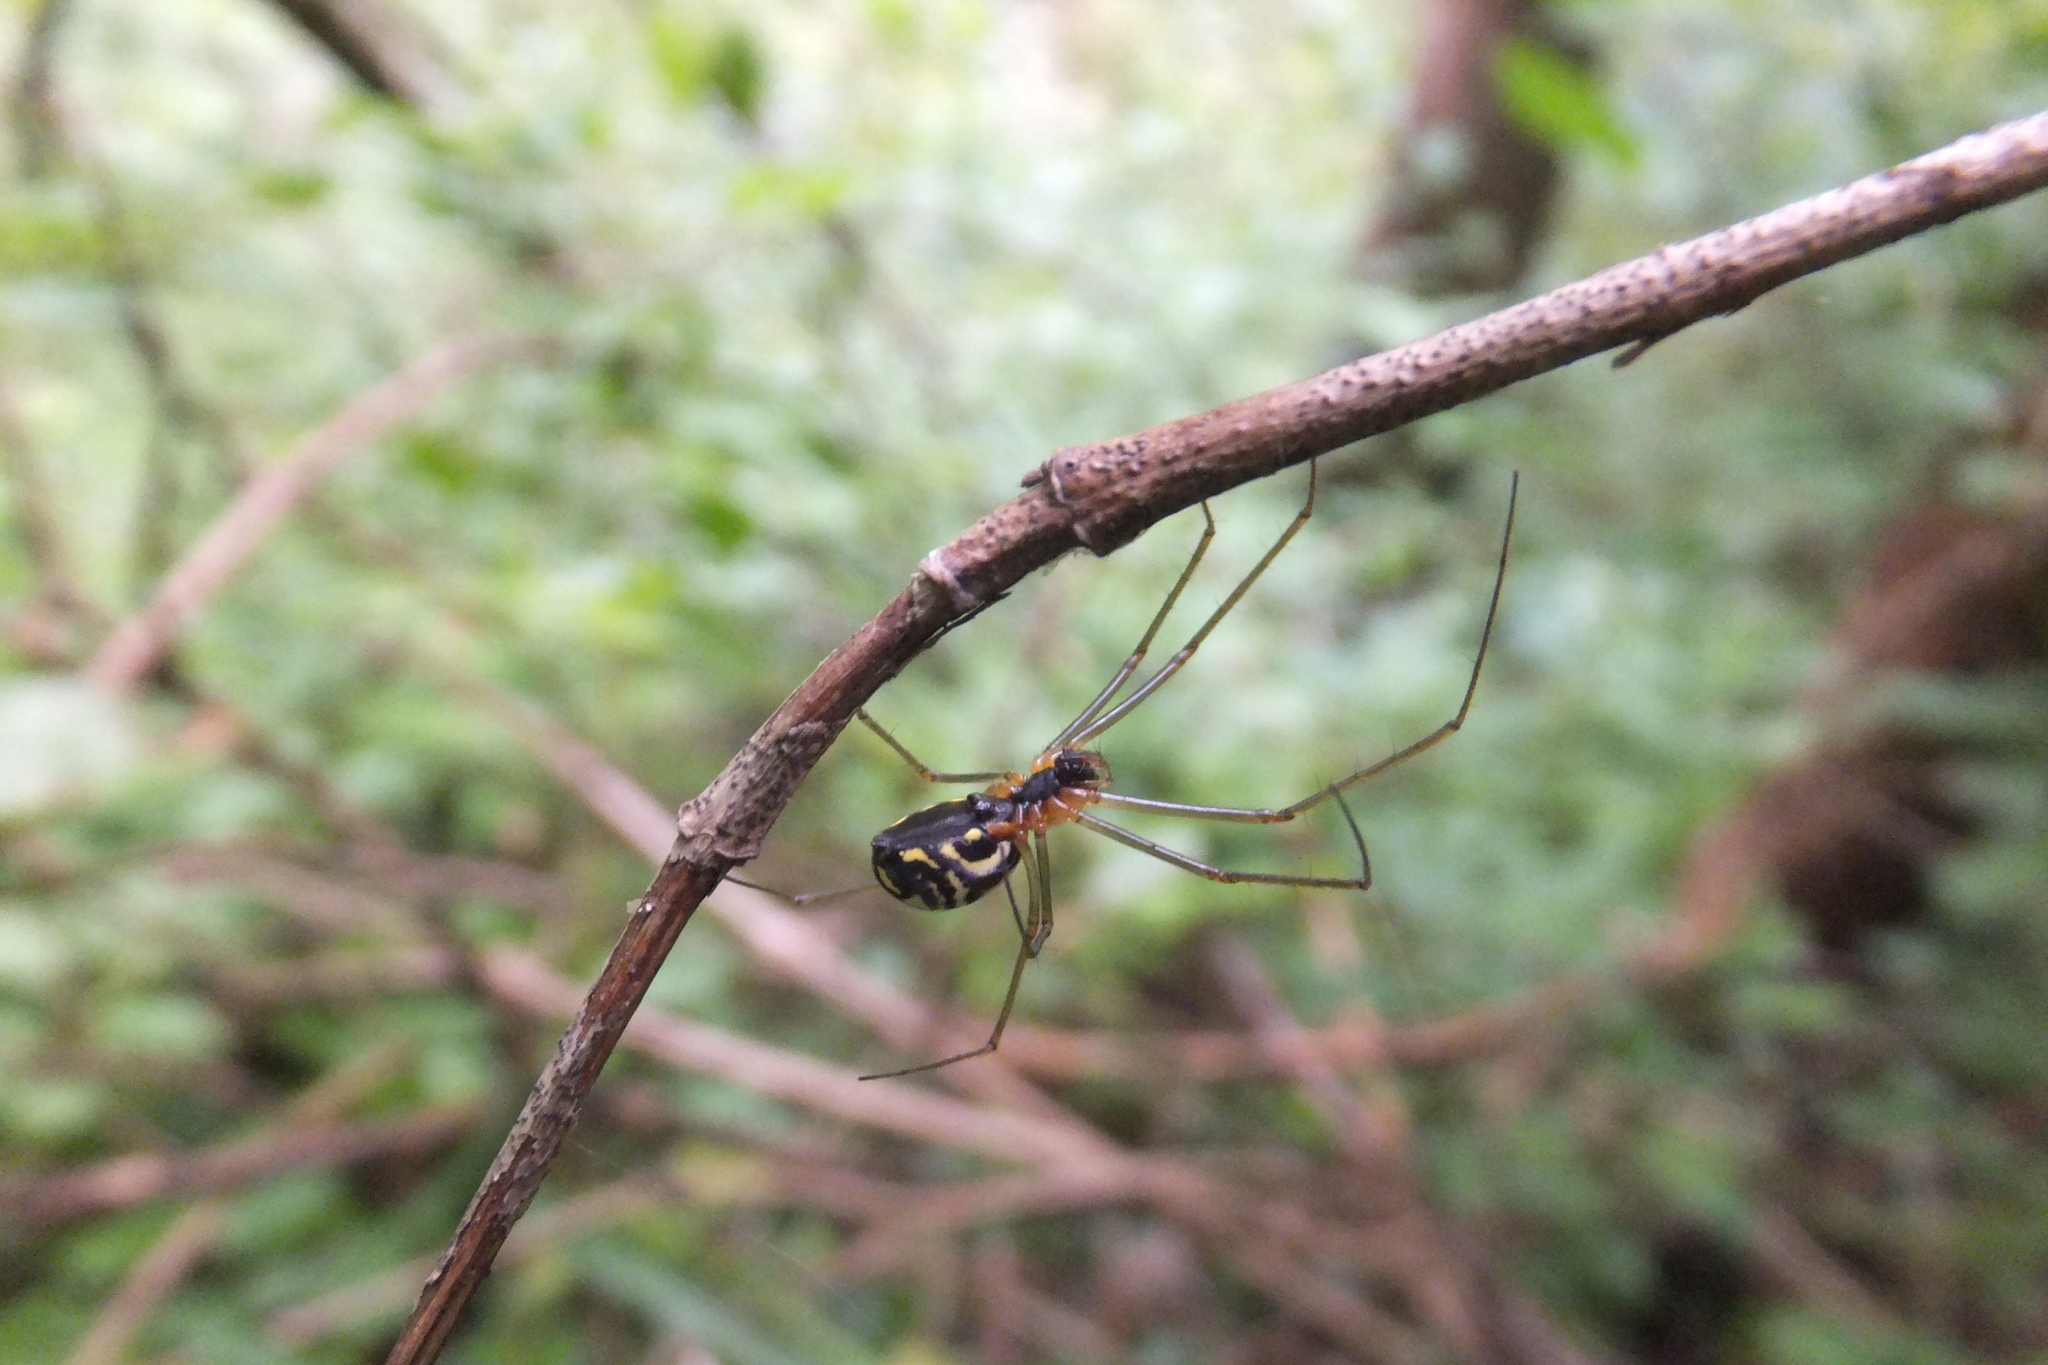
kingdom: Animalia
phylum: Arthropoda
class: Arachnida
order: Araneae
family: Linyphiidae
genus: Neriene
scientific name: Neriene radiata
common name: Filmy dome spider
